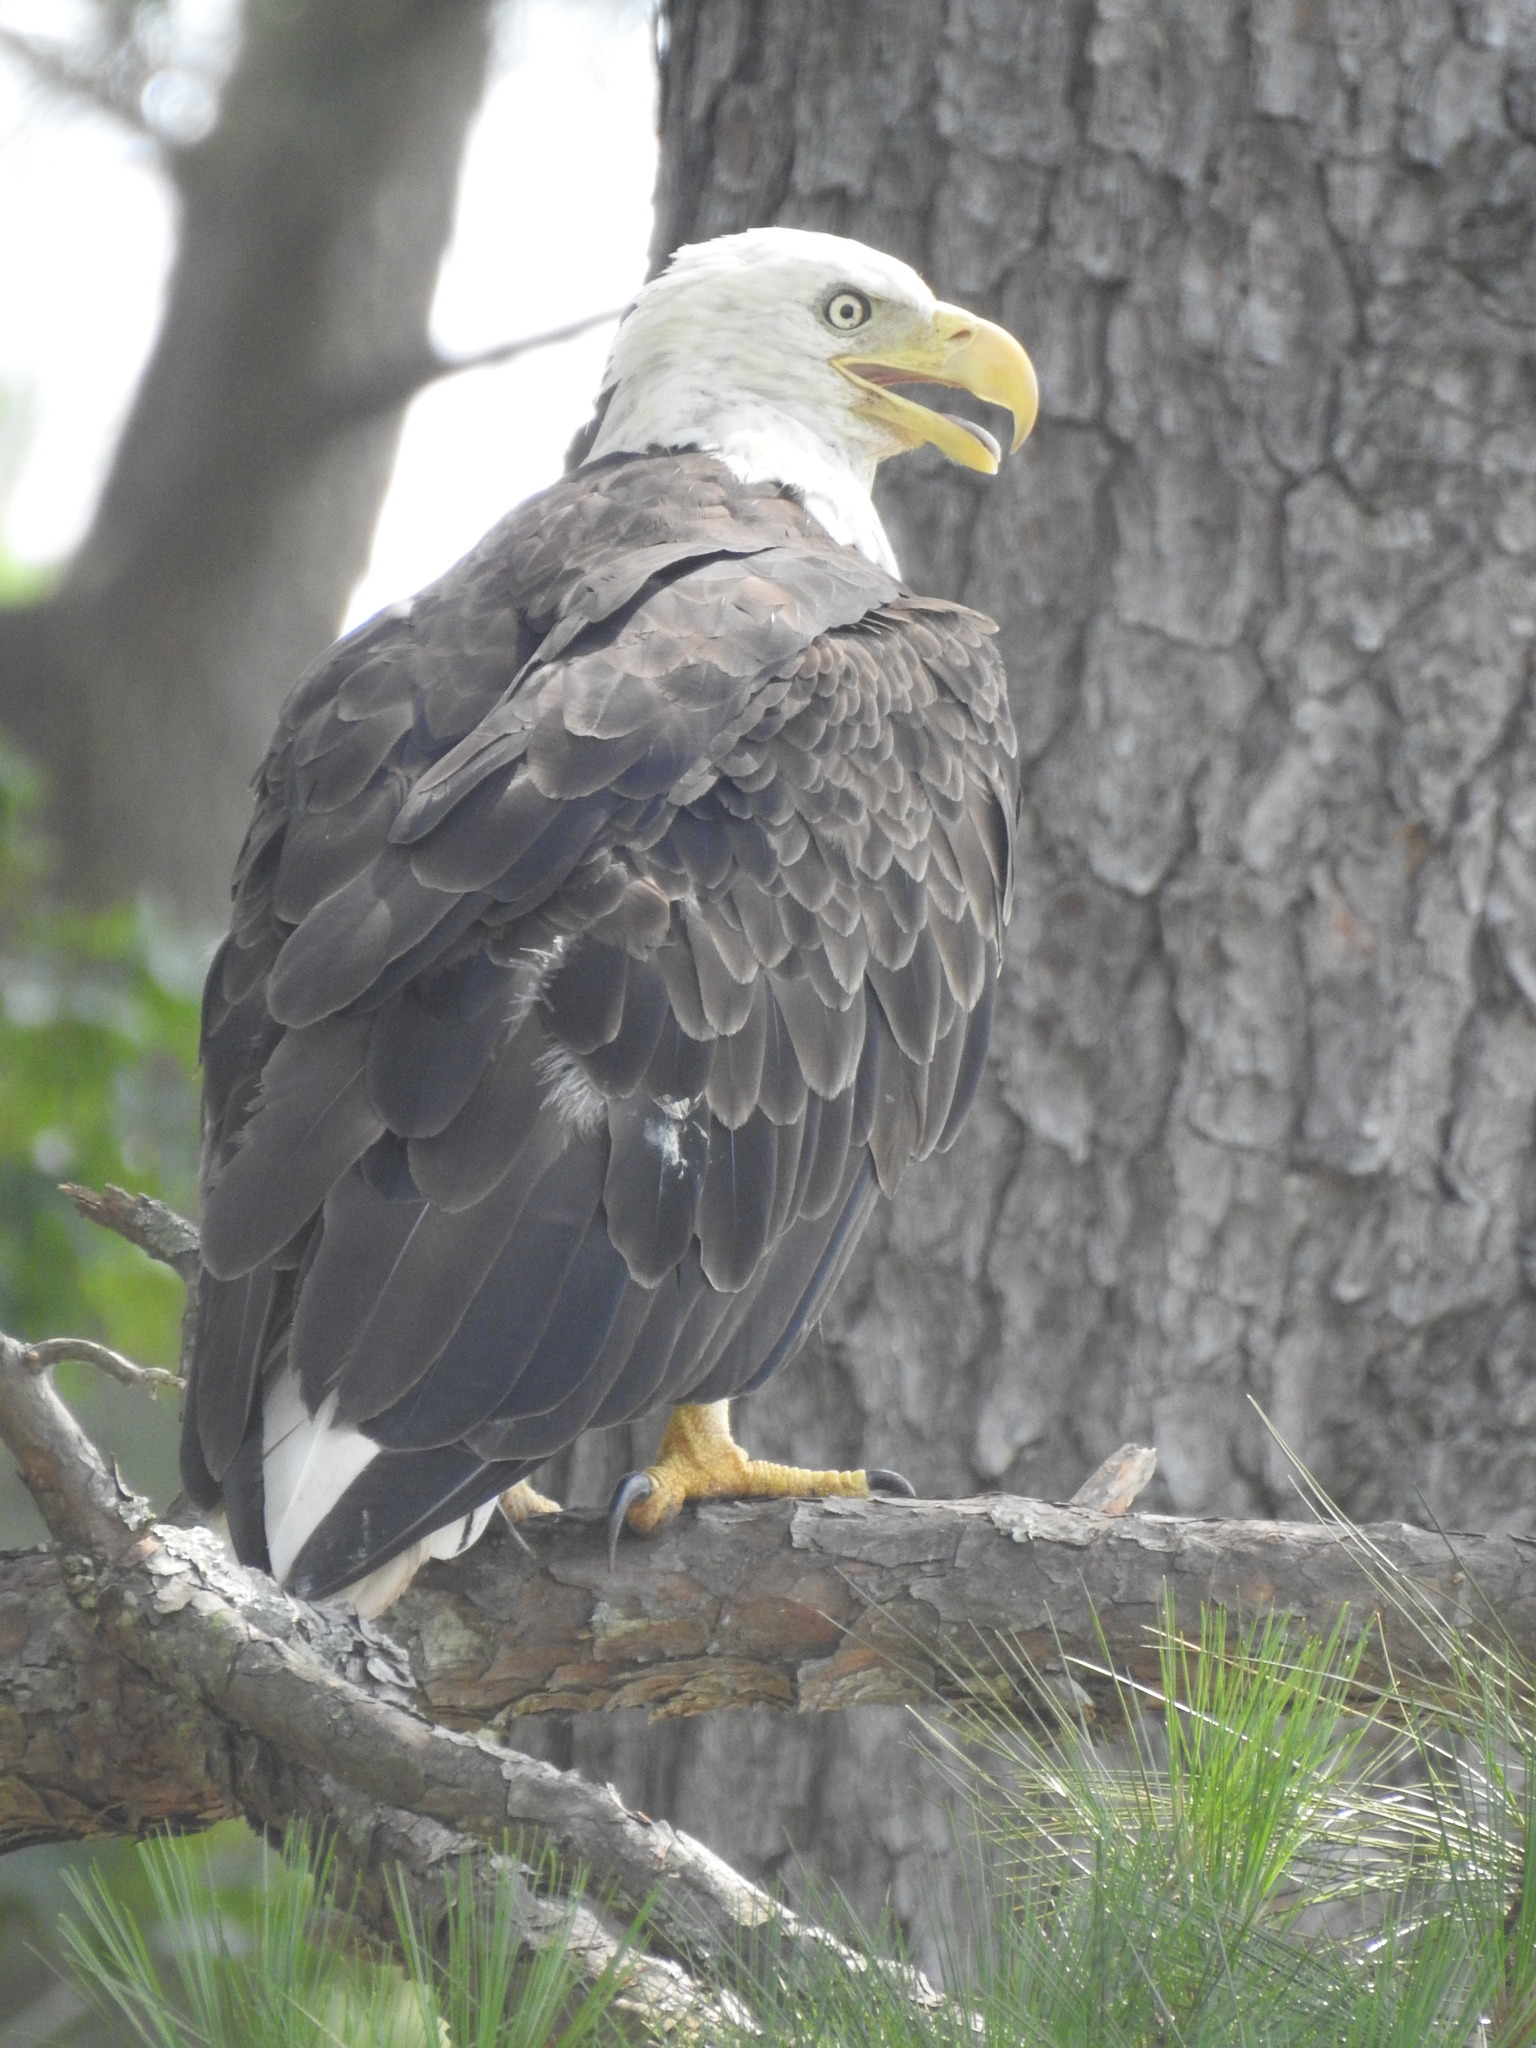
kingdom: Animalia
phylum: Chordata
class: Aves
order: Accipitriformes
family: Accipitridae
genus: Haliaeetus
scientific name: Haliaeetus leucocephalus
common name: Bald eagle
